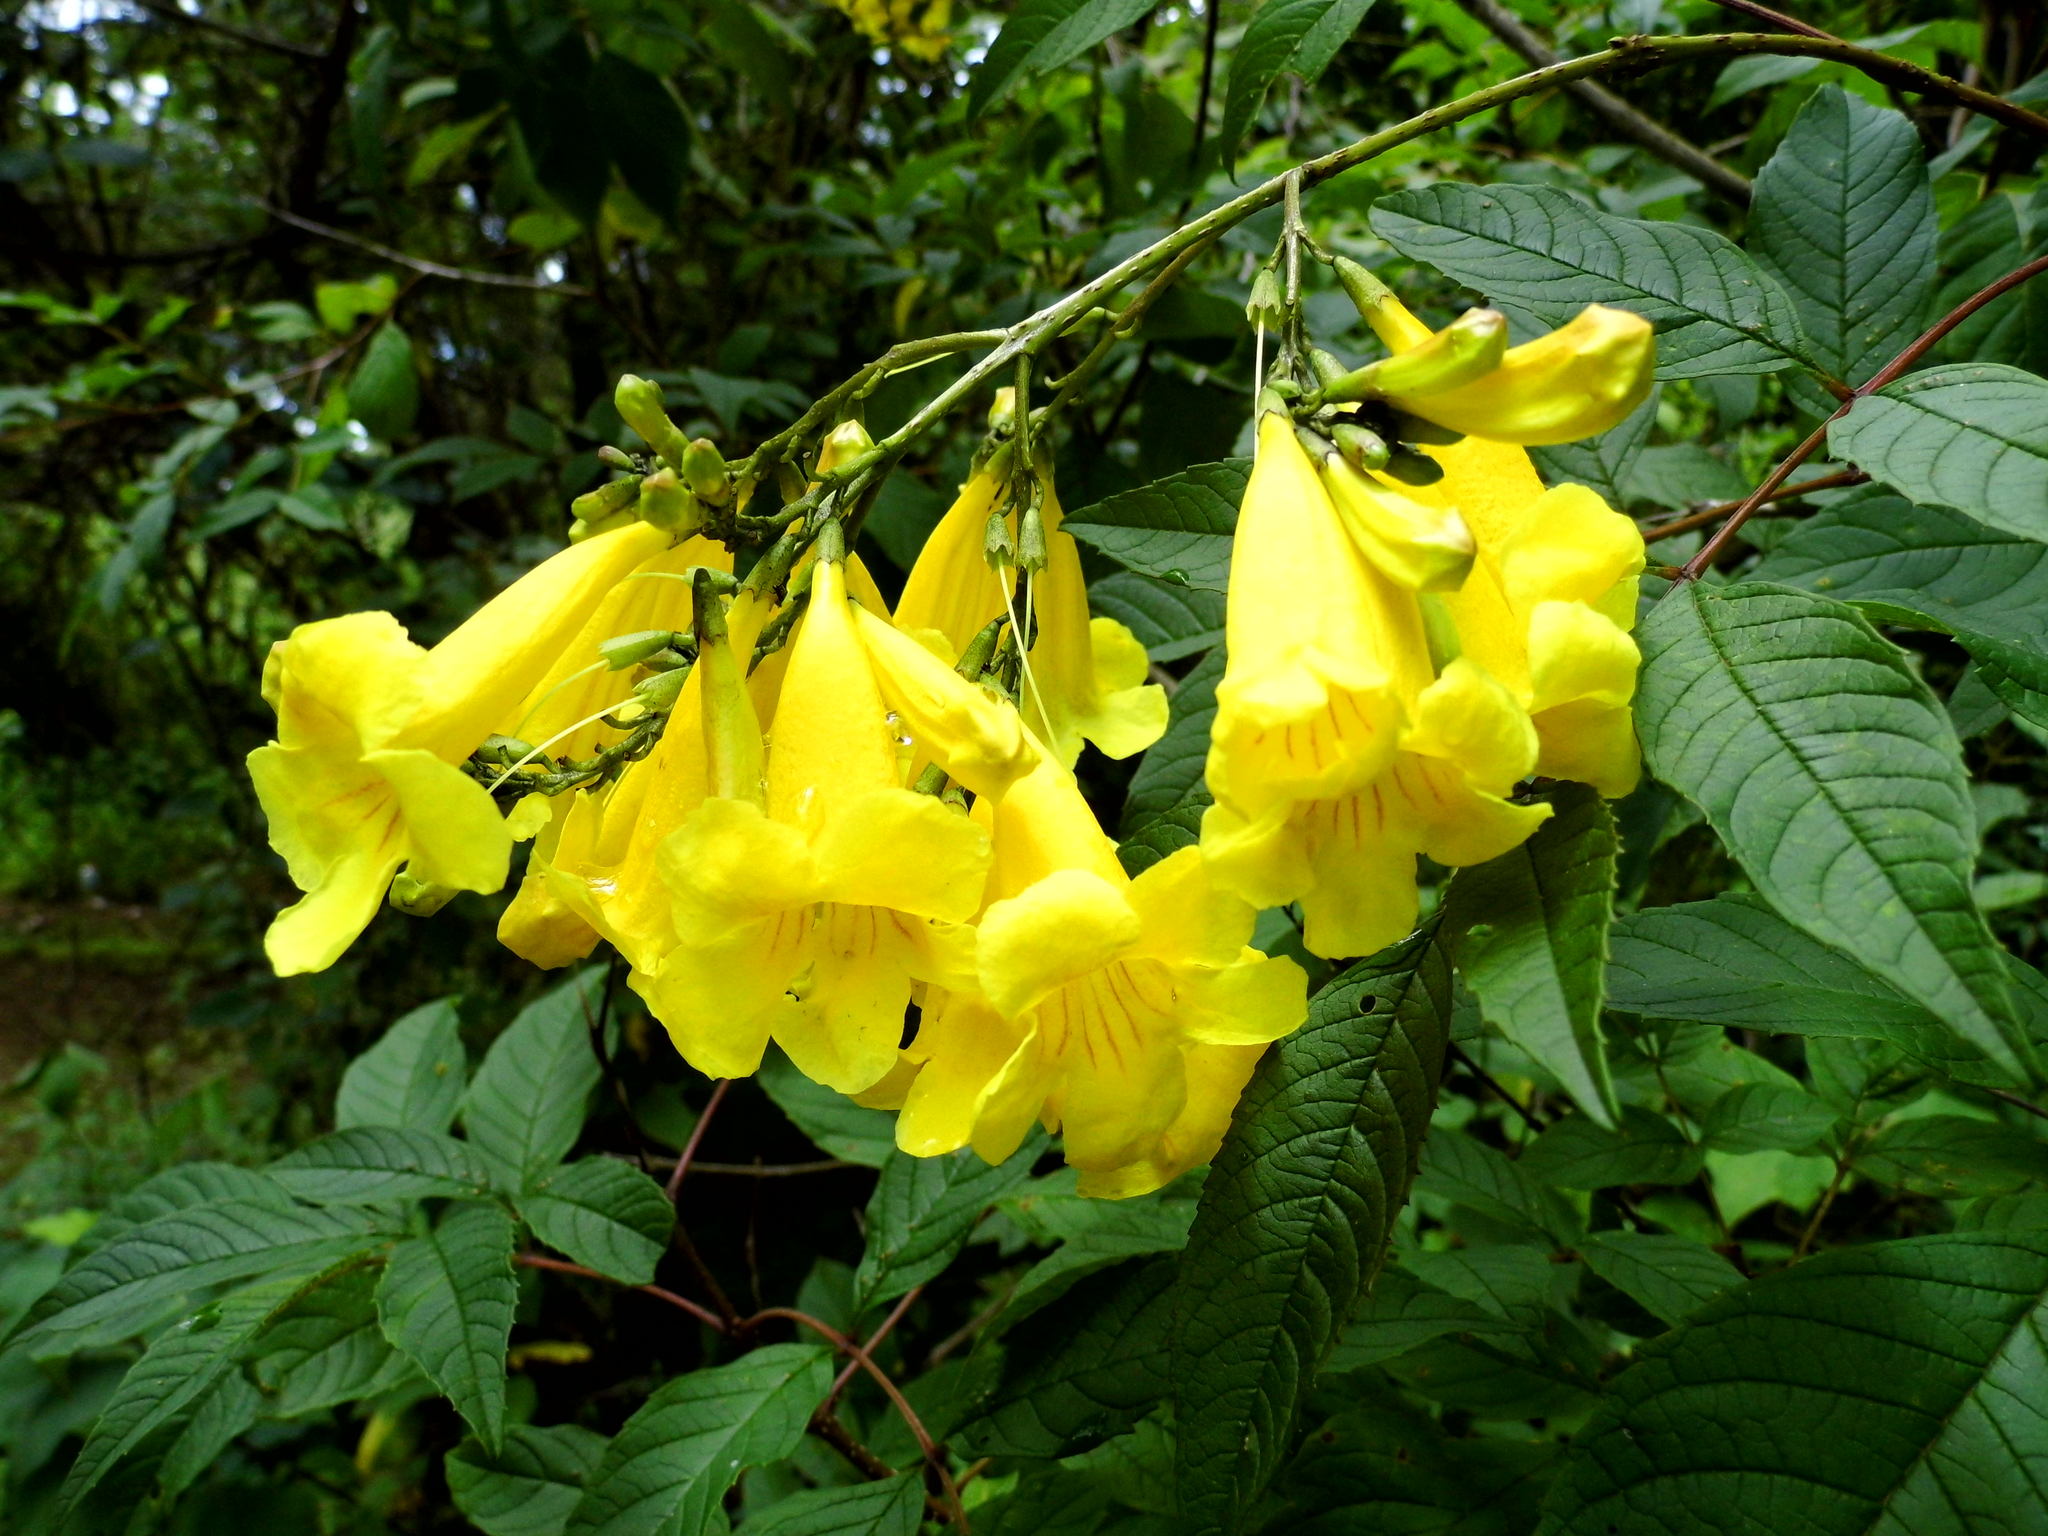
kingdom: Plantae
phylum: Tracheophyta
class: Magnoliopsida
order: Lamiales
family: Bignoniaceae
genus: Tecoma
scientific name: Tecoma stans
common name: Yellow trumpetbush
